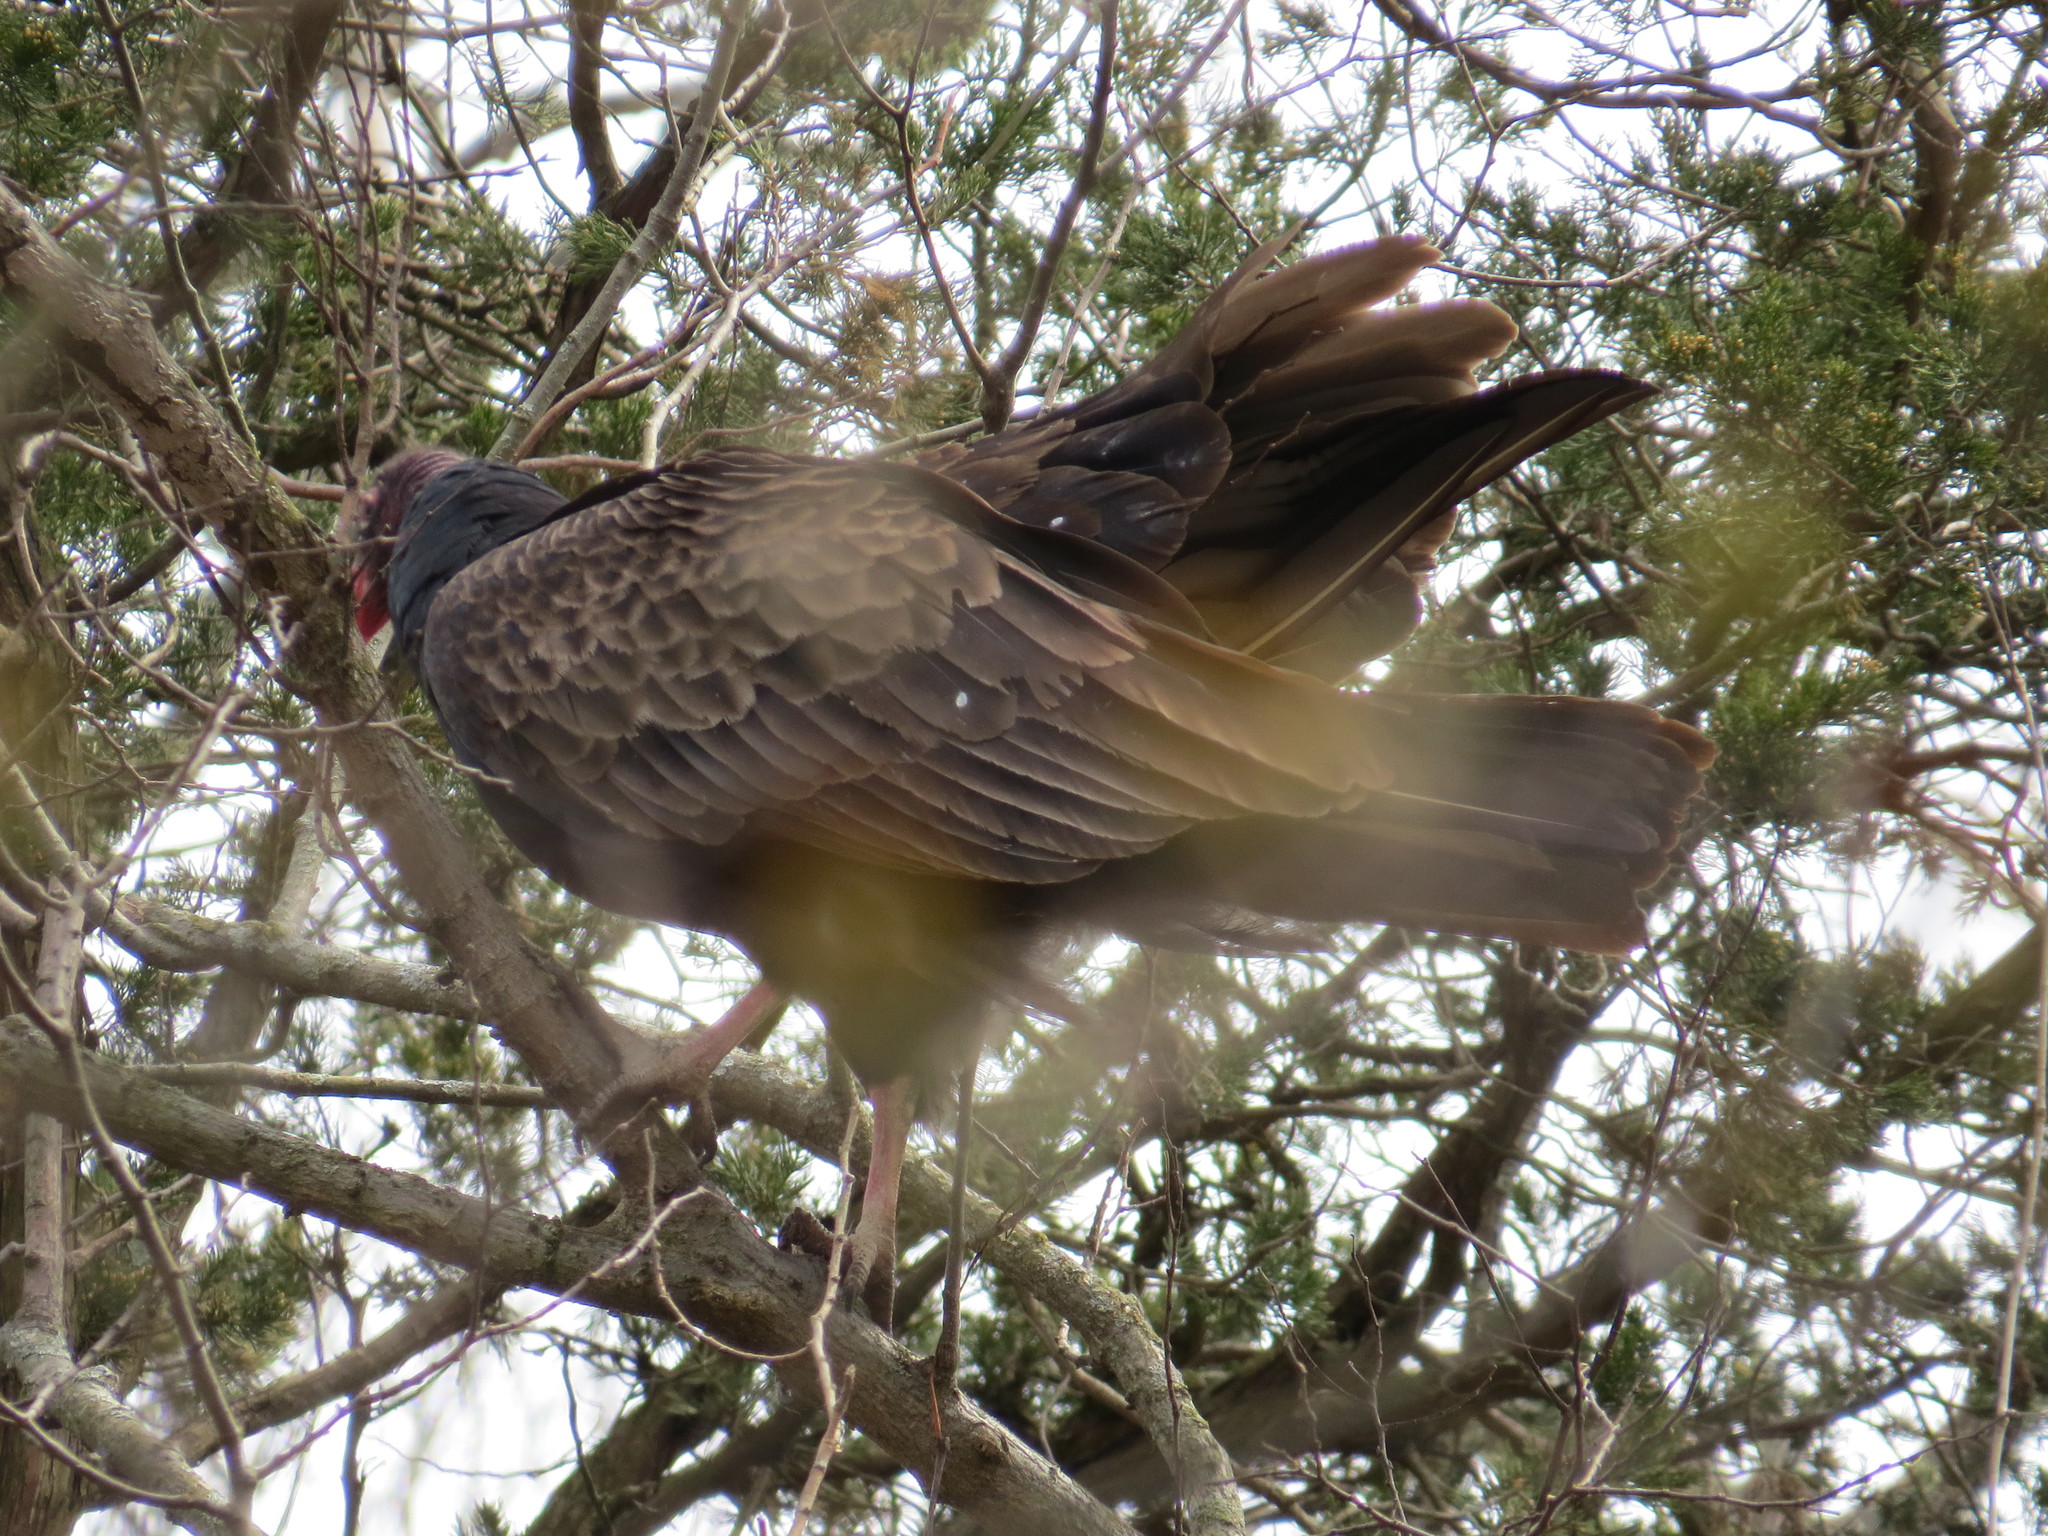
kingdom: Animalia
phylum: Chordata
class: Aves
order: Accipitriformes
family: Cathartidae
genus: Cathartes
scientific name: Cathartes aura
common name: Turkey vulture
